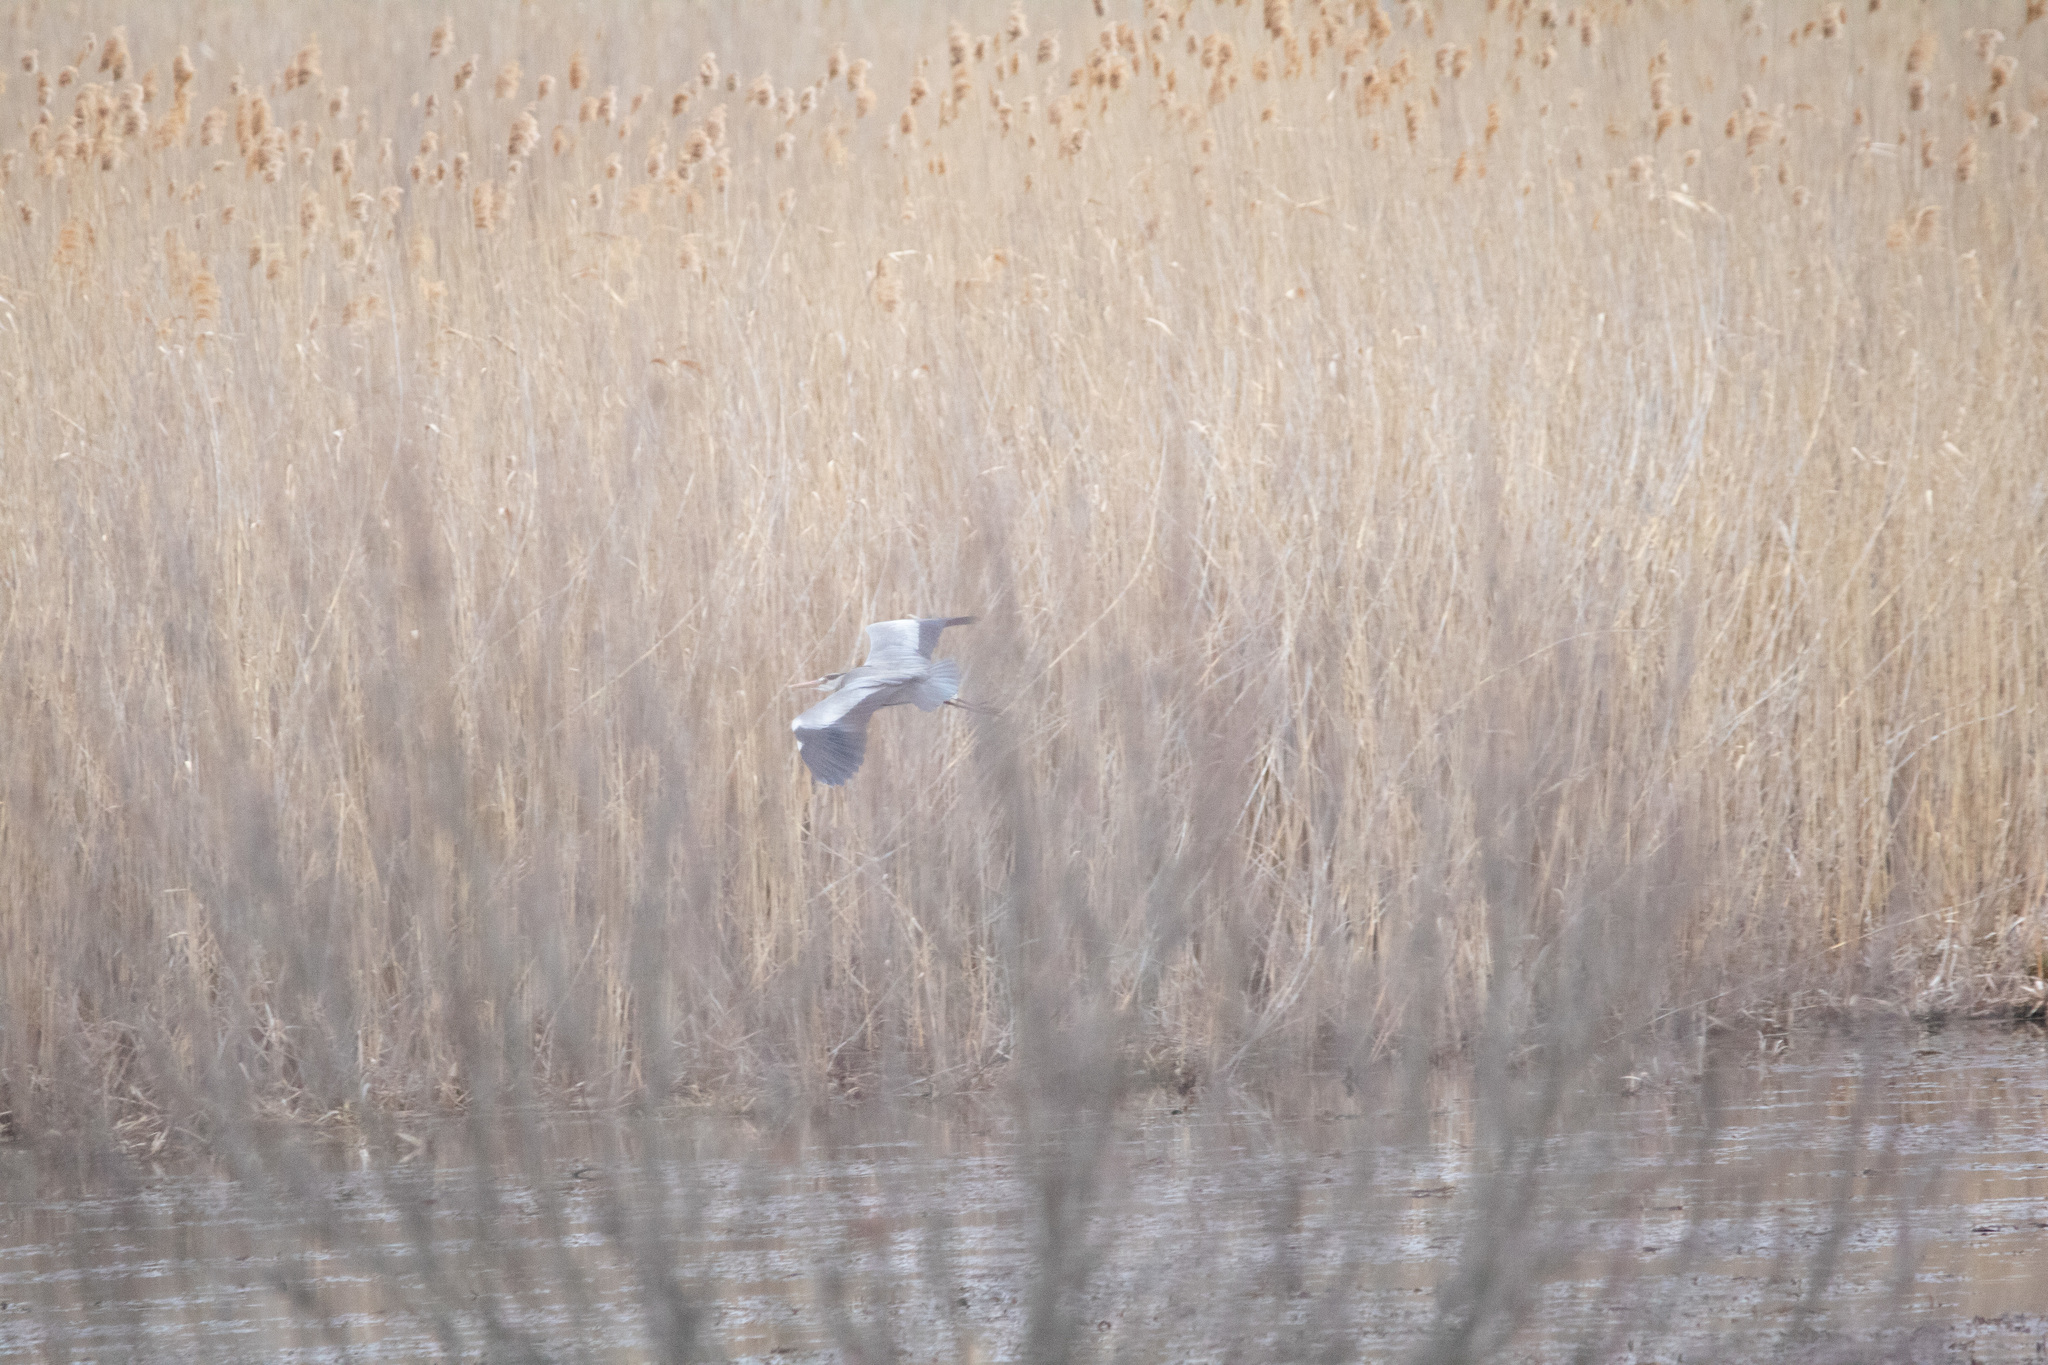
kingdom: Animalia
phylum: Chordata
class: Aves
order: Pelecaniformes
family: Ardeidae
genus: Ardea
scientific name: Ardea cinerea
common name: Grey heron
